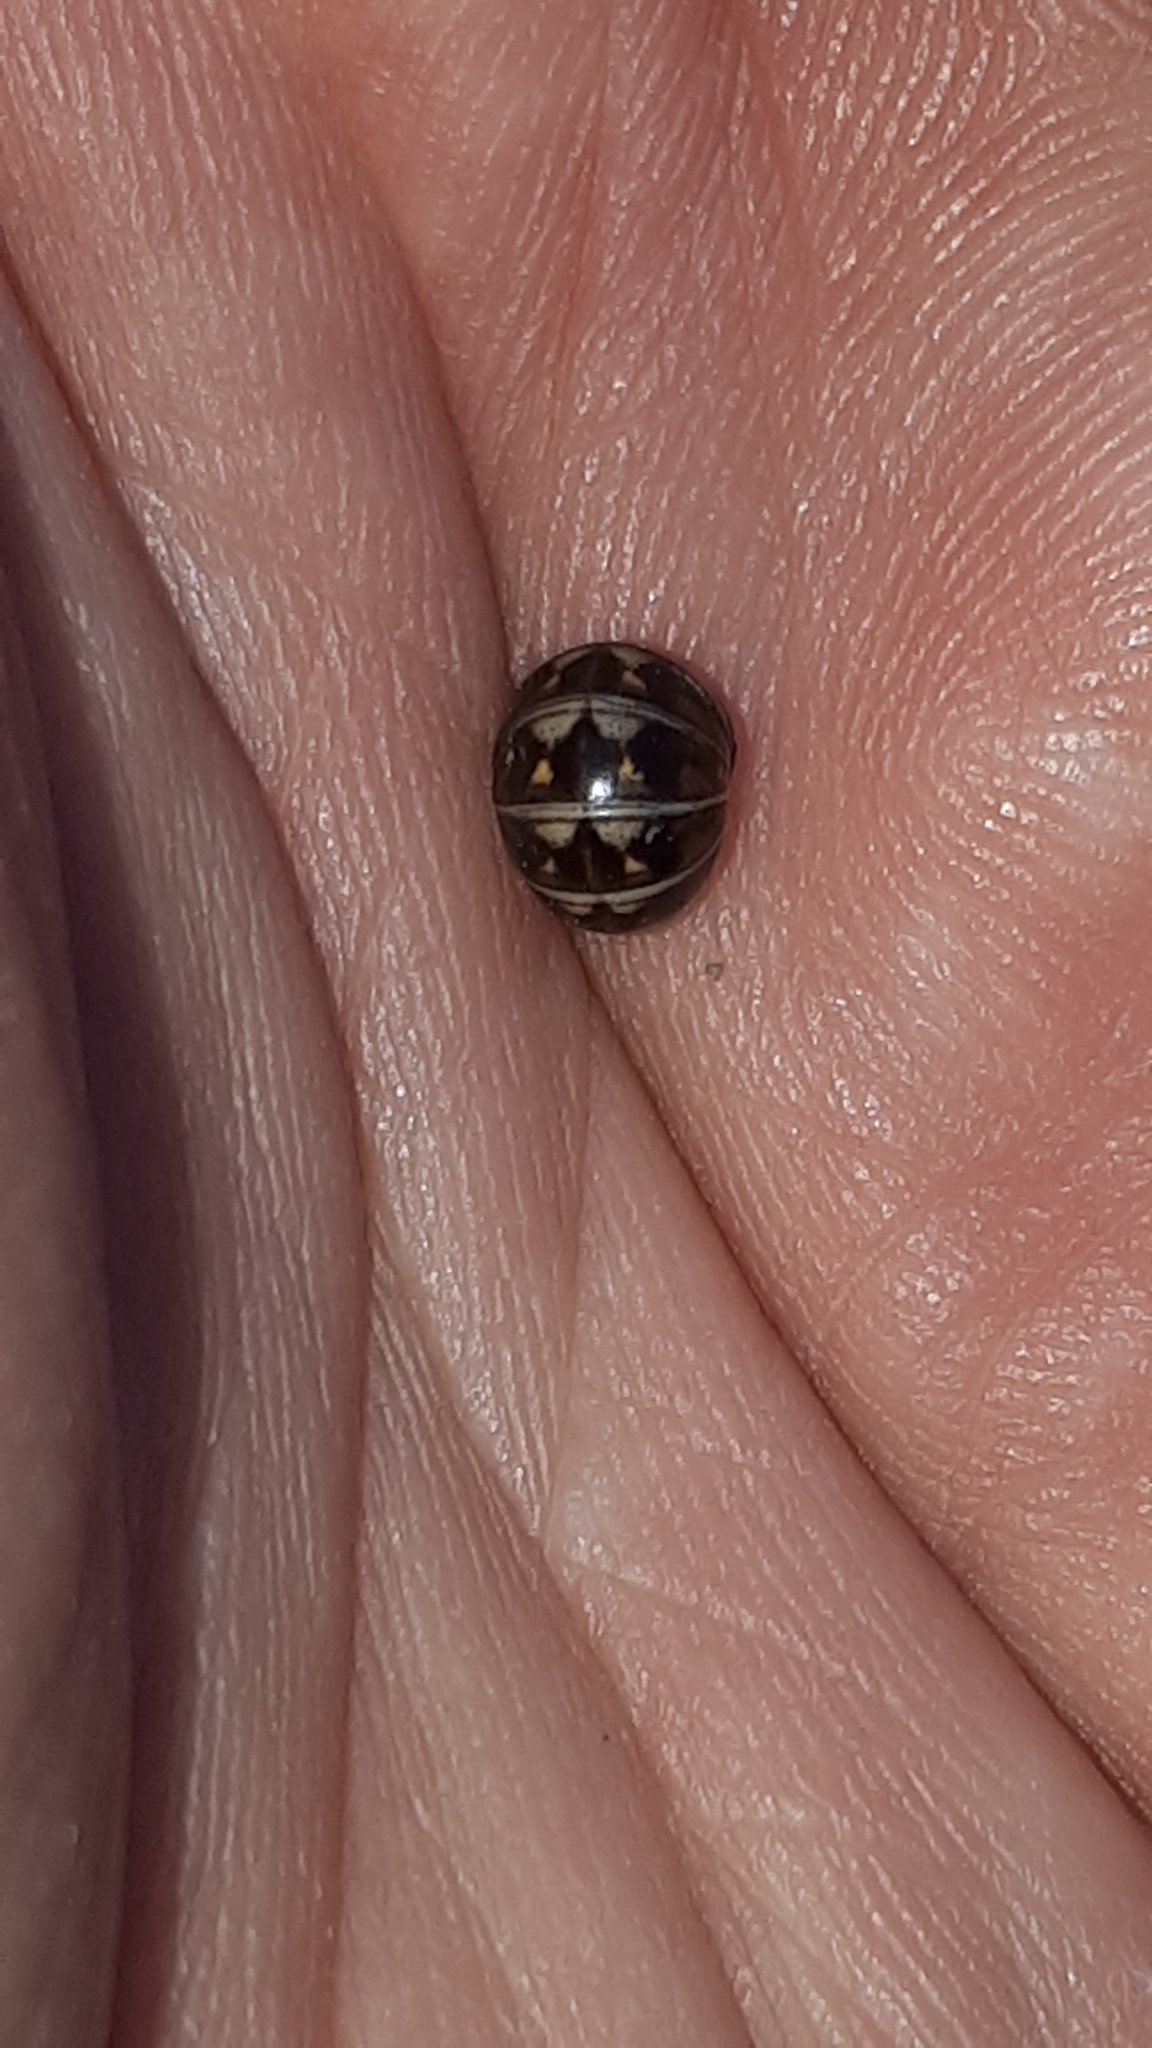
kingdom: Animalia
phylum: Arthropoda
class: Diplopoda
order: Glomerida
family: Glomeridae
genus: Glomeris
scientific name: Glomeris hexasticha
